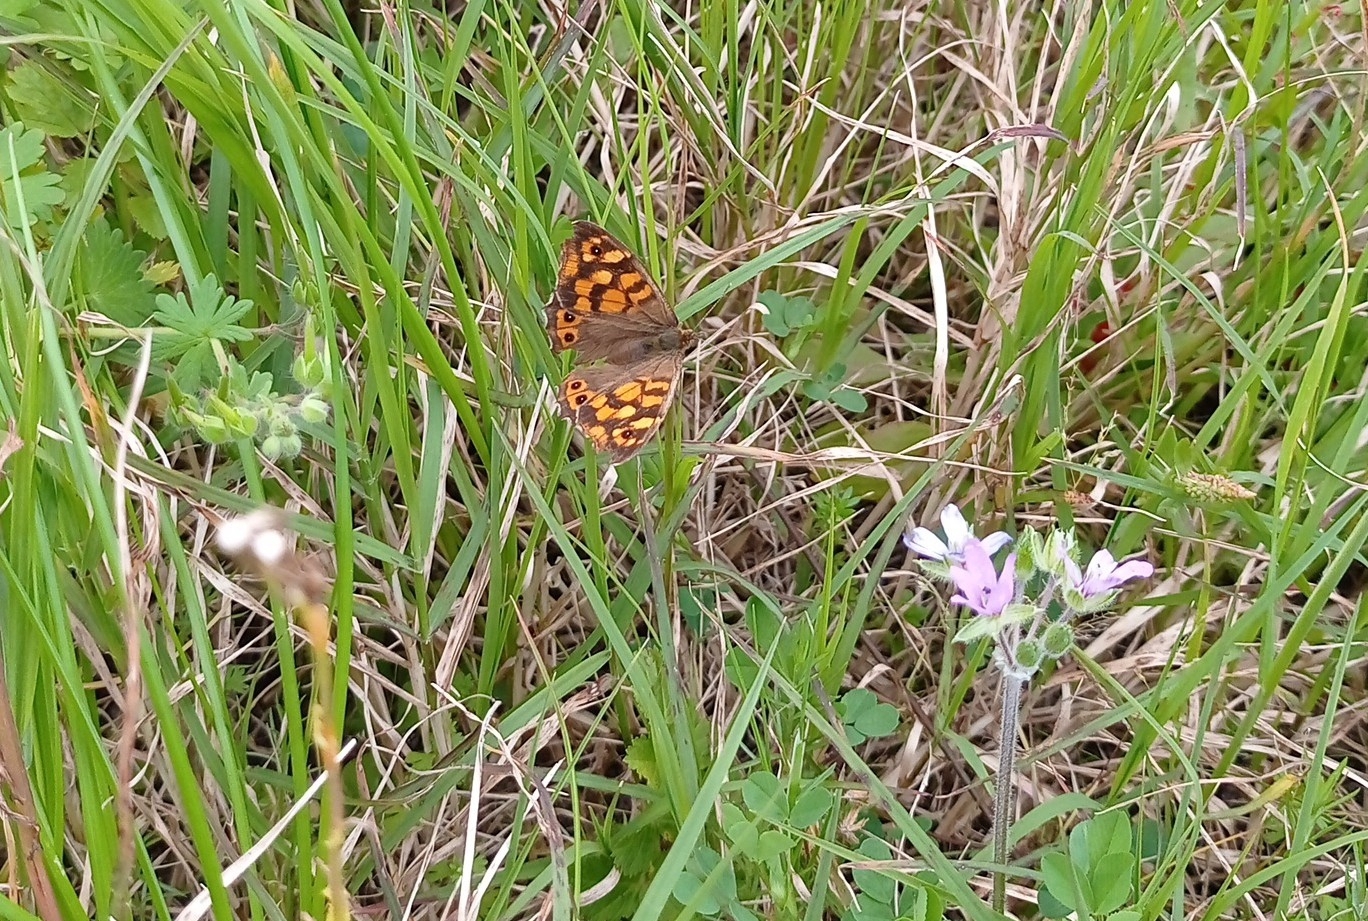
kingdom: Animalia
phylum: Arthropoda
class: Insecta
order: Lepidoptera
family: Nymphalidae
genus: Pararge
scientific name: Pararge aegeria
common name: Speckled wood
